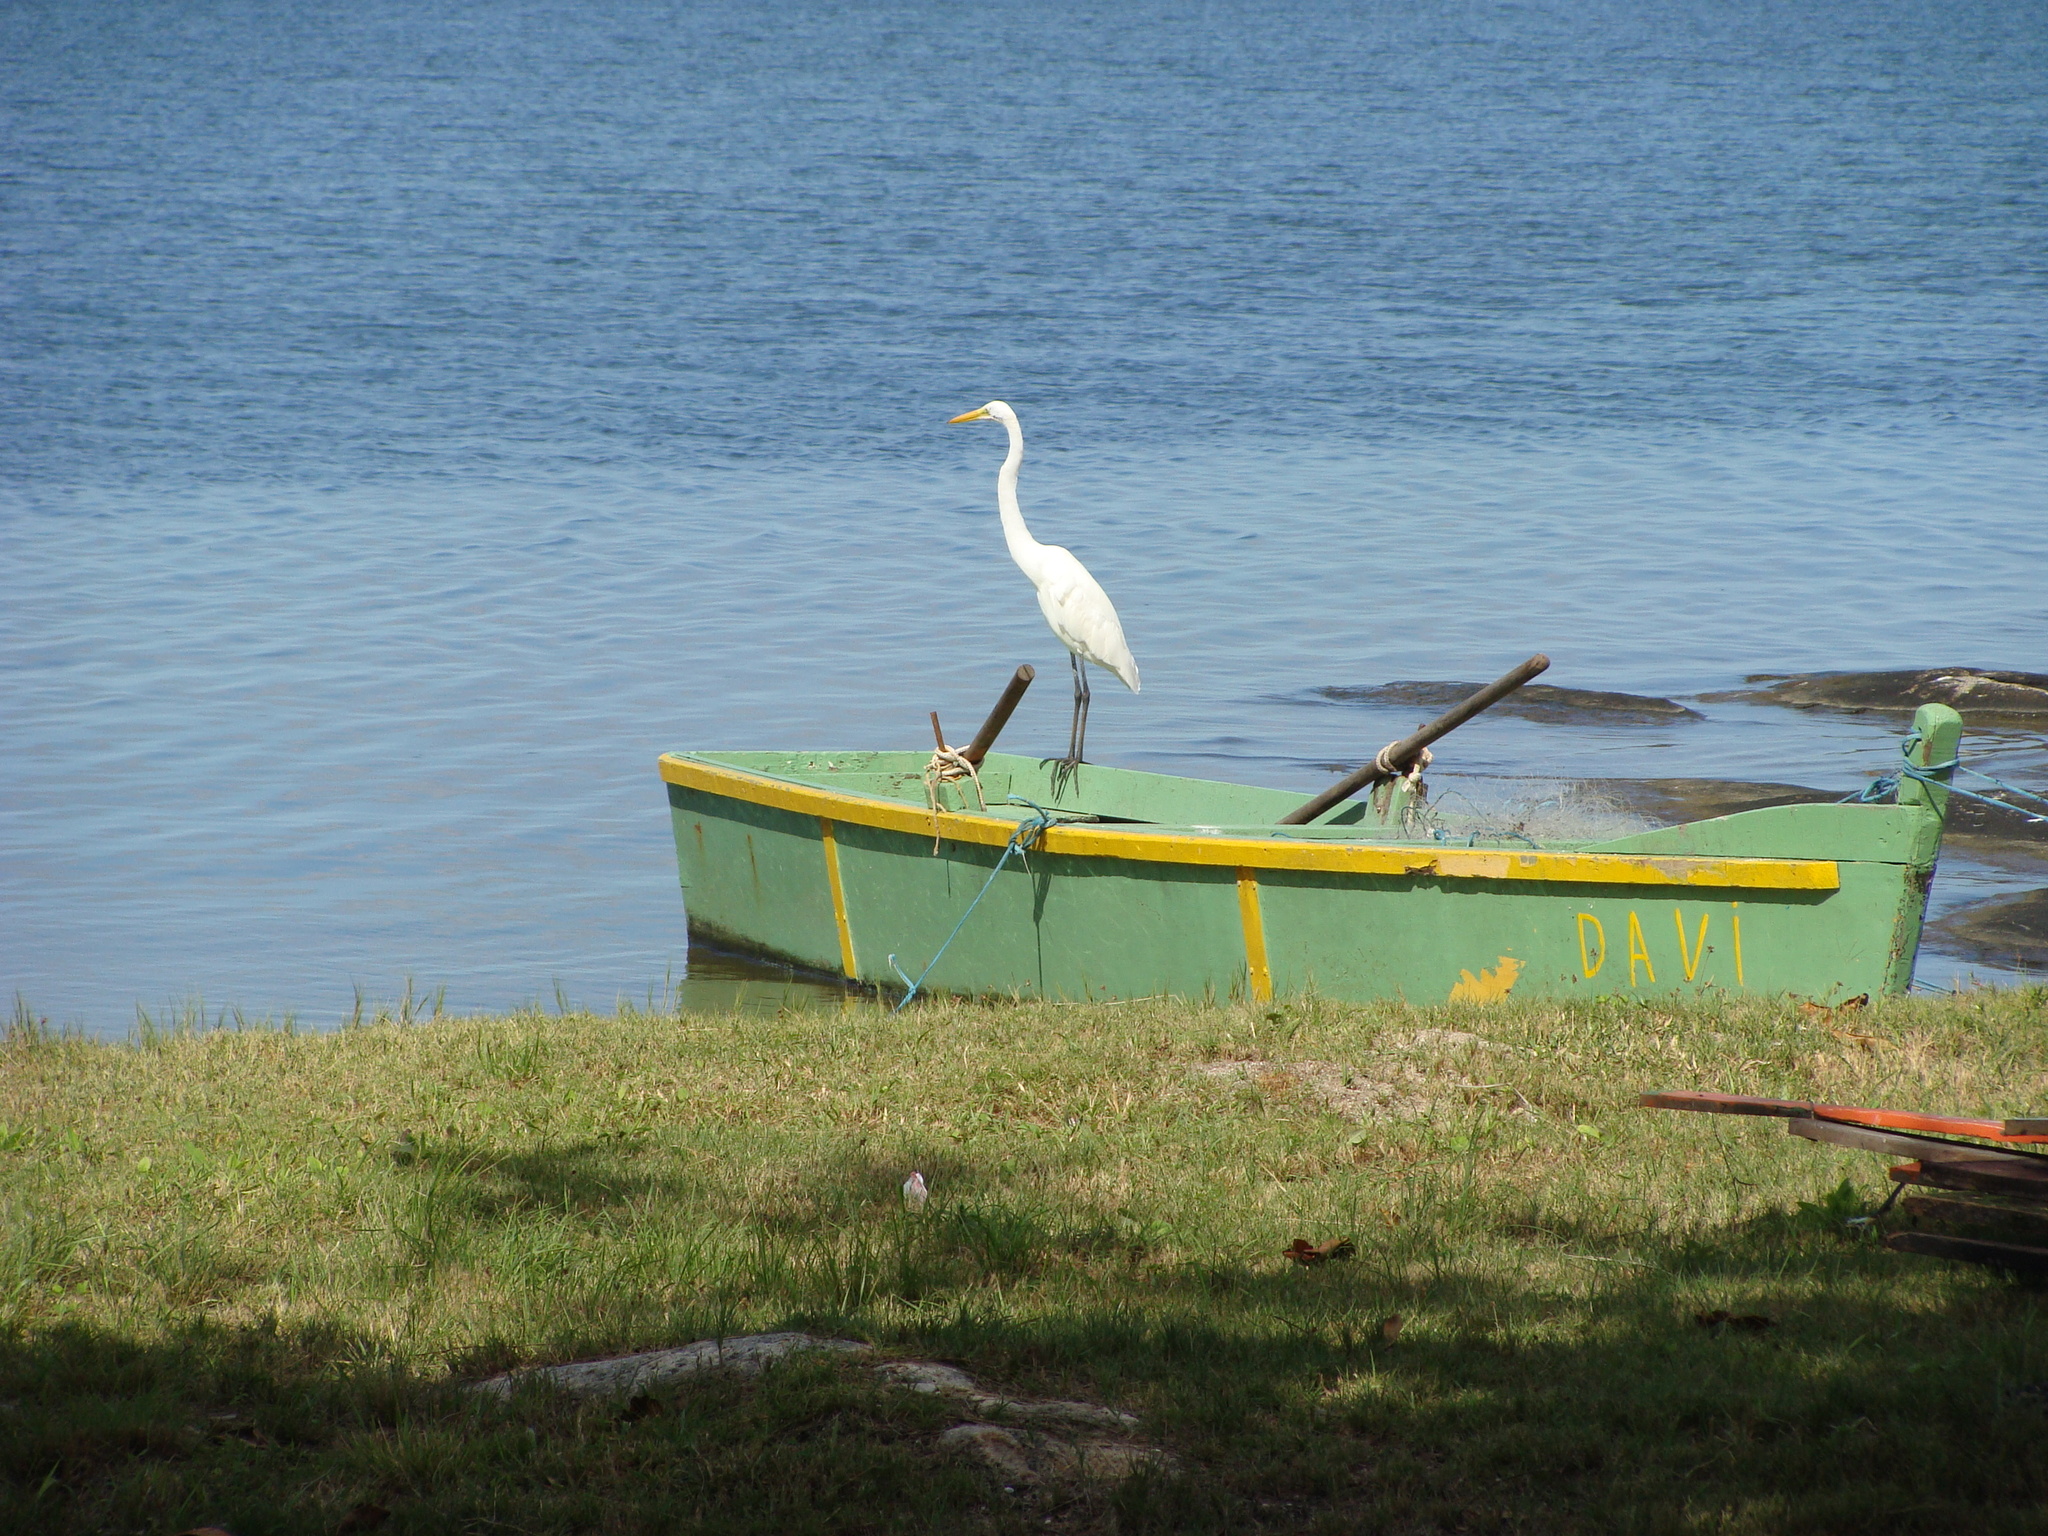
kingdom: Animalia
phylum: Chordata
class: Aves
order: Pelecaniformes
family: Ardeidae
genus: Ardea
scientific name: Ardea alba
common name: Great egret
